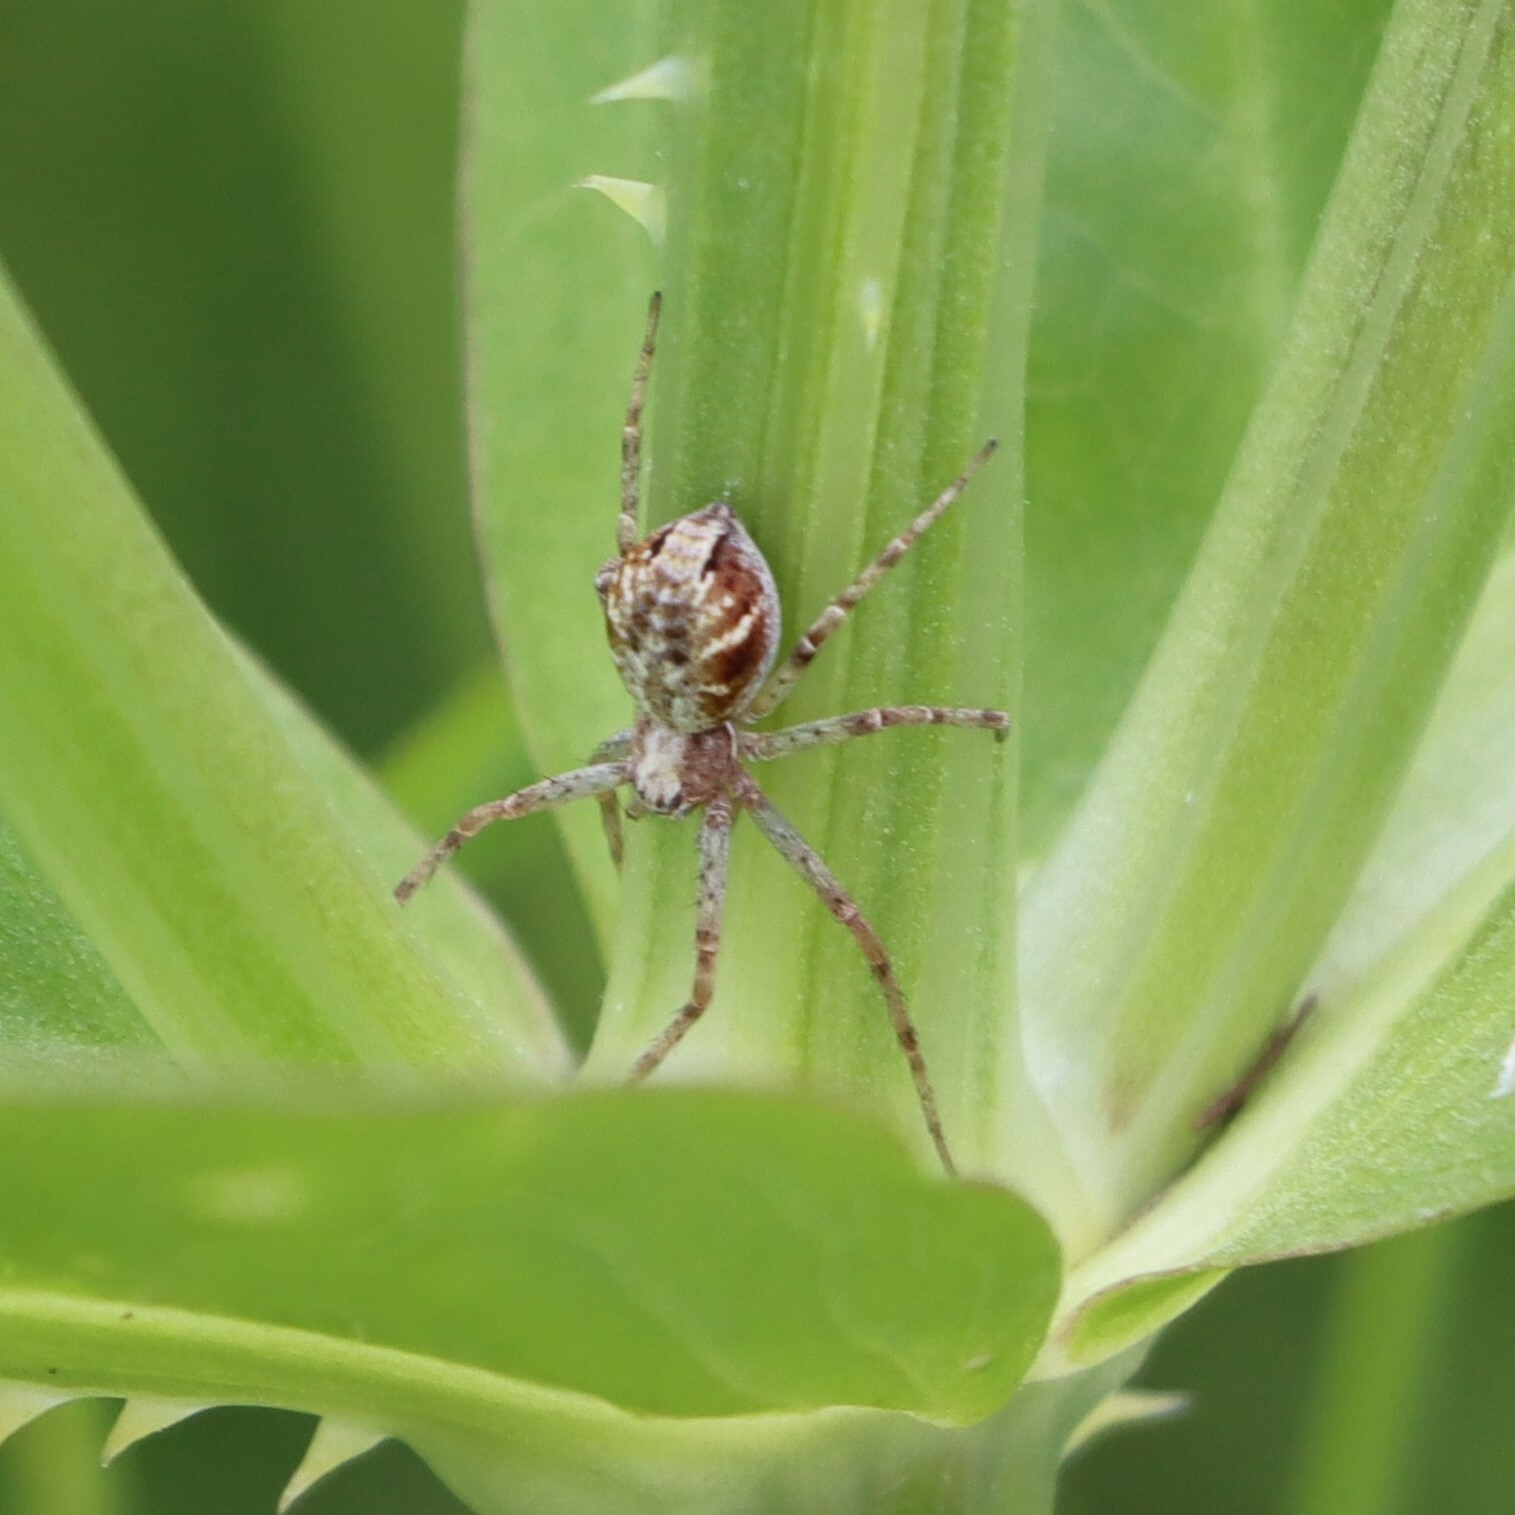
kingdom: Animalia
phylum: Arthropoda
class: Arachnida
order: Araneae
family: Philodromidae
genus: Philodromus
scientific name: Philodromus
